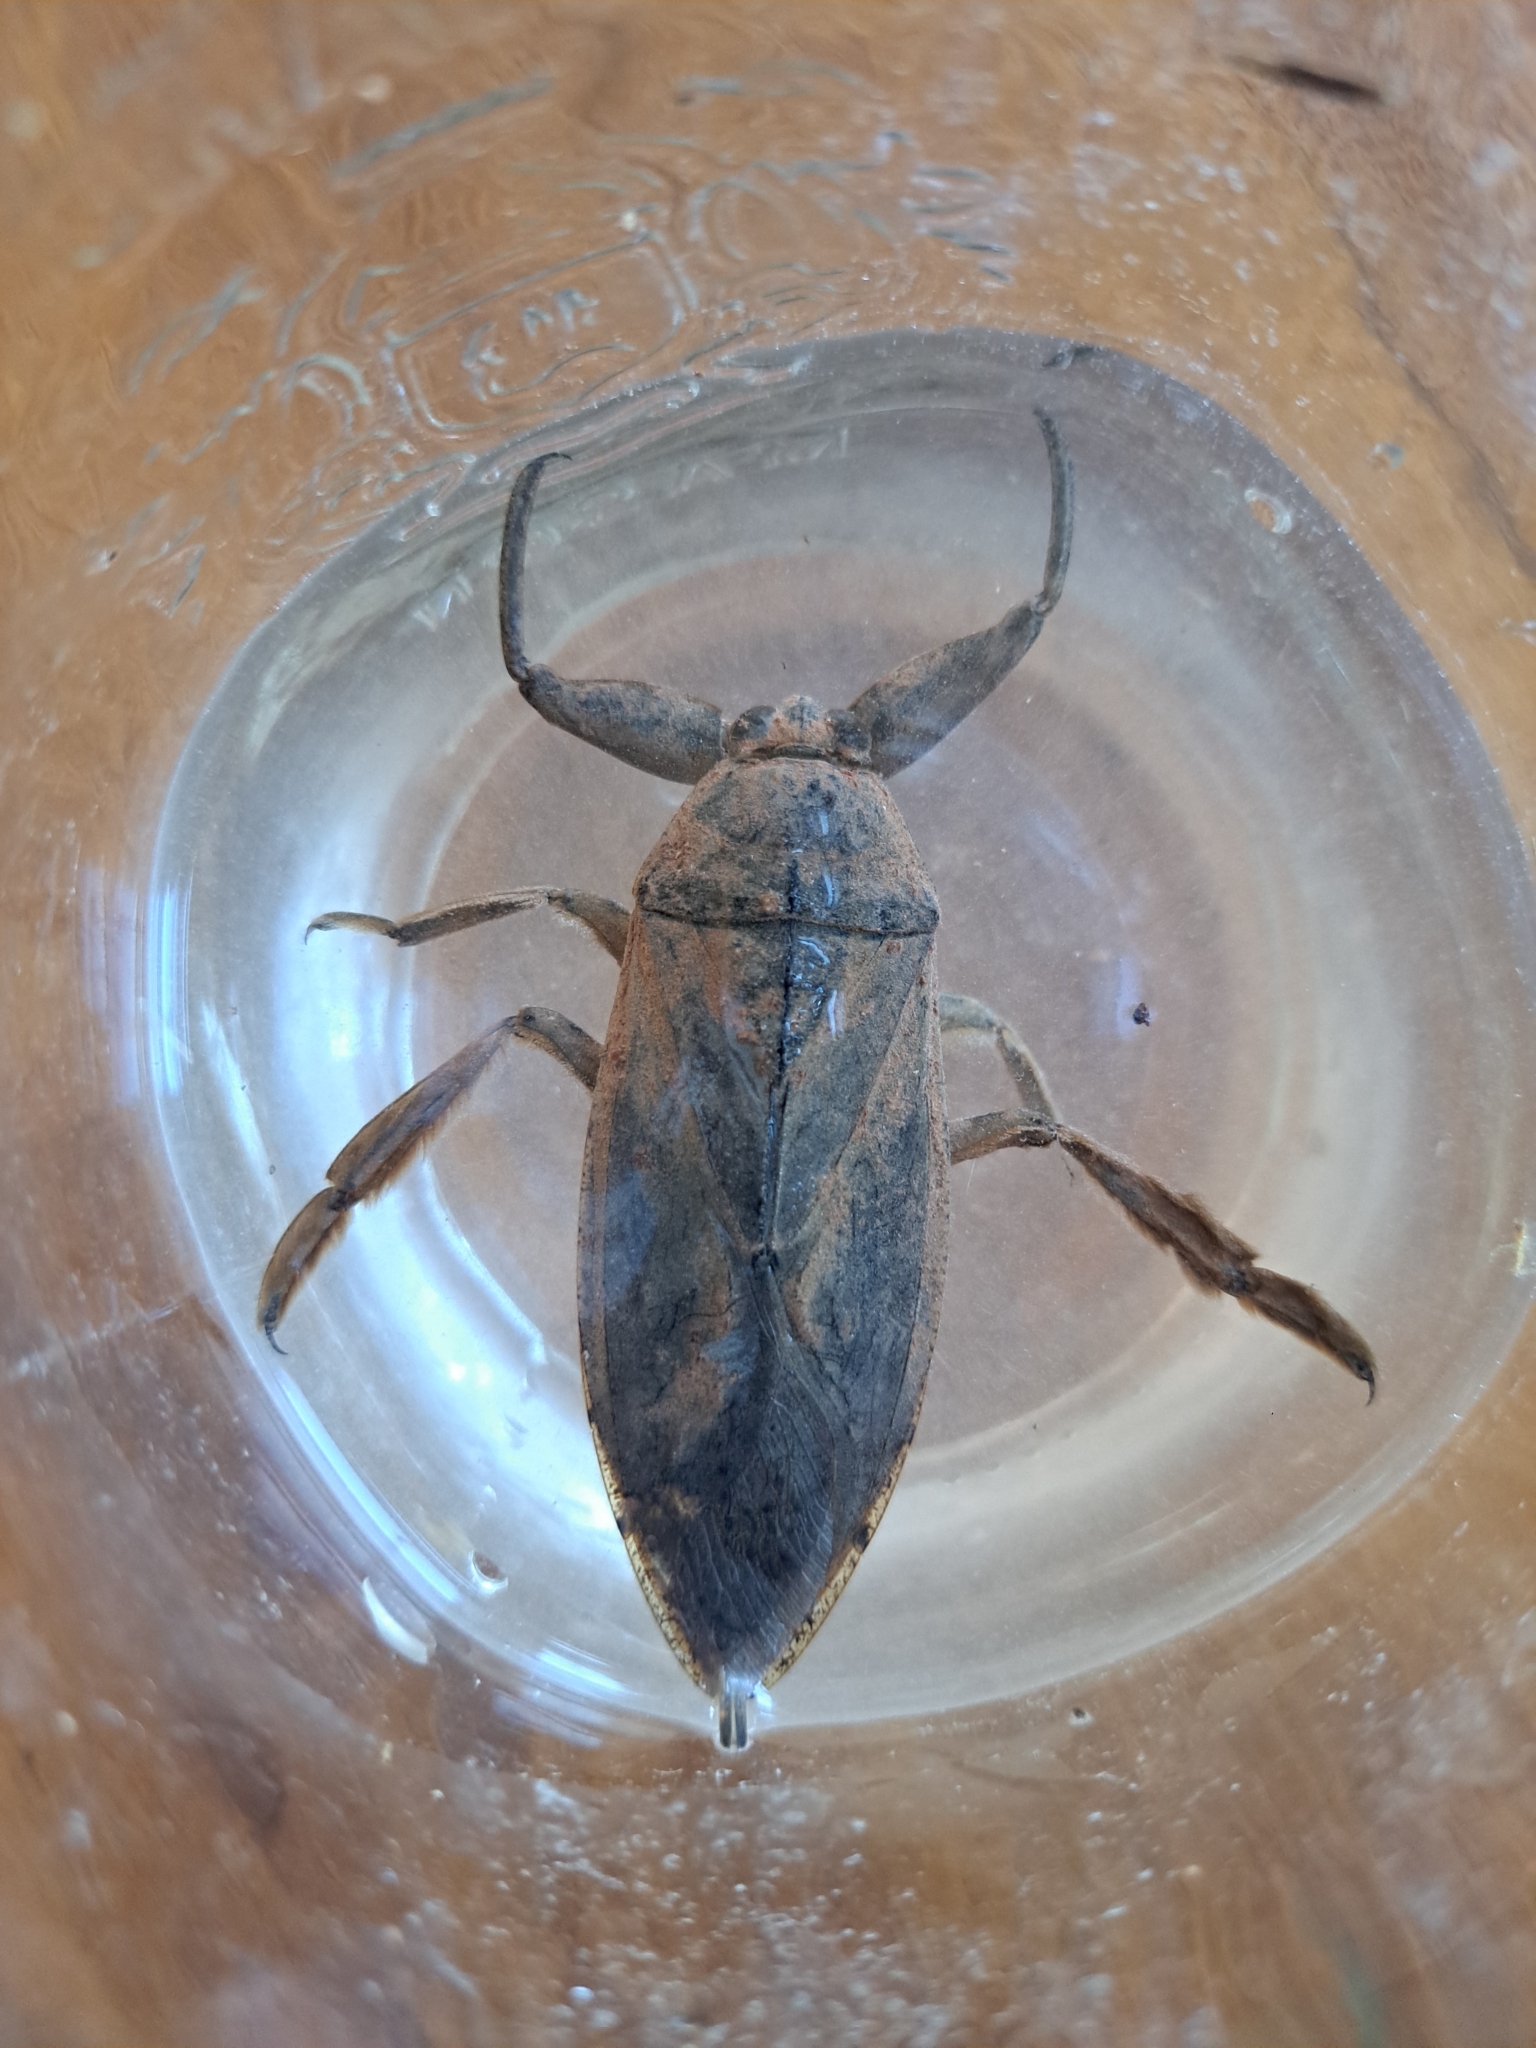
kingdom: Animalia
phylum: Arthropoda
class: Insecta
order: Hemiptera
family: Belostomatidae
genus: Lethocerus
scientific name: Lethocerus americanus
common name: Giant water bug
